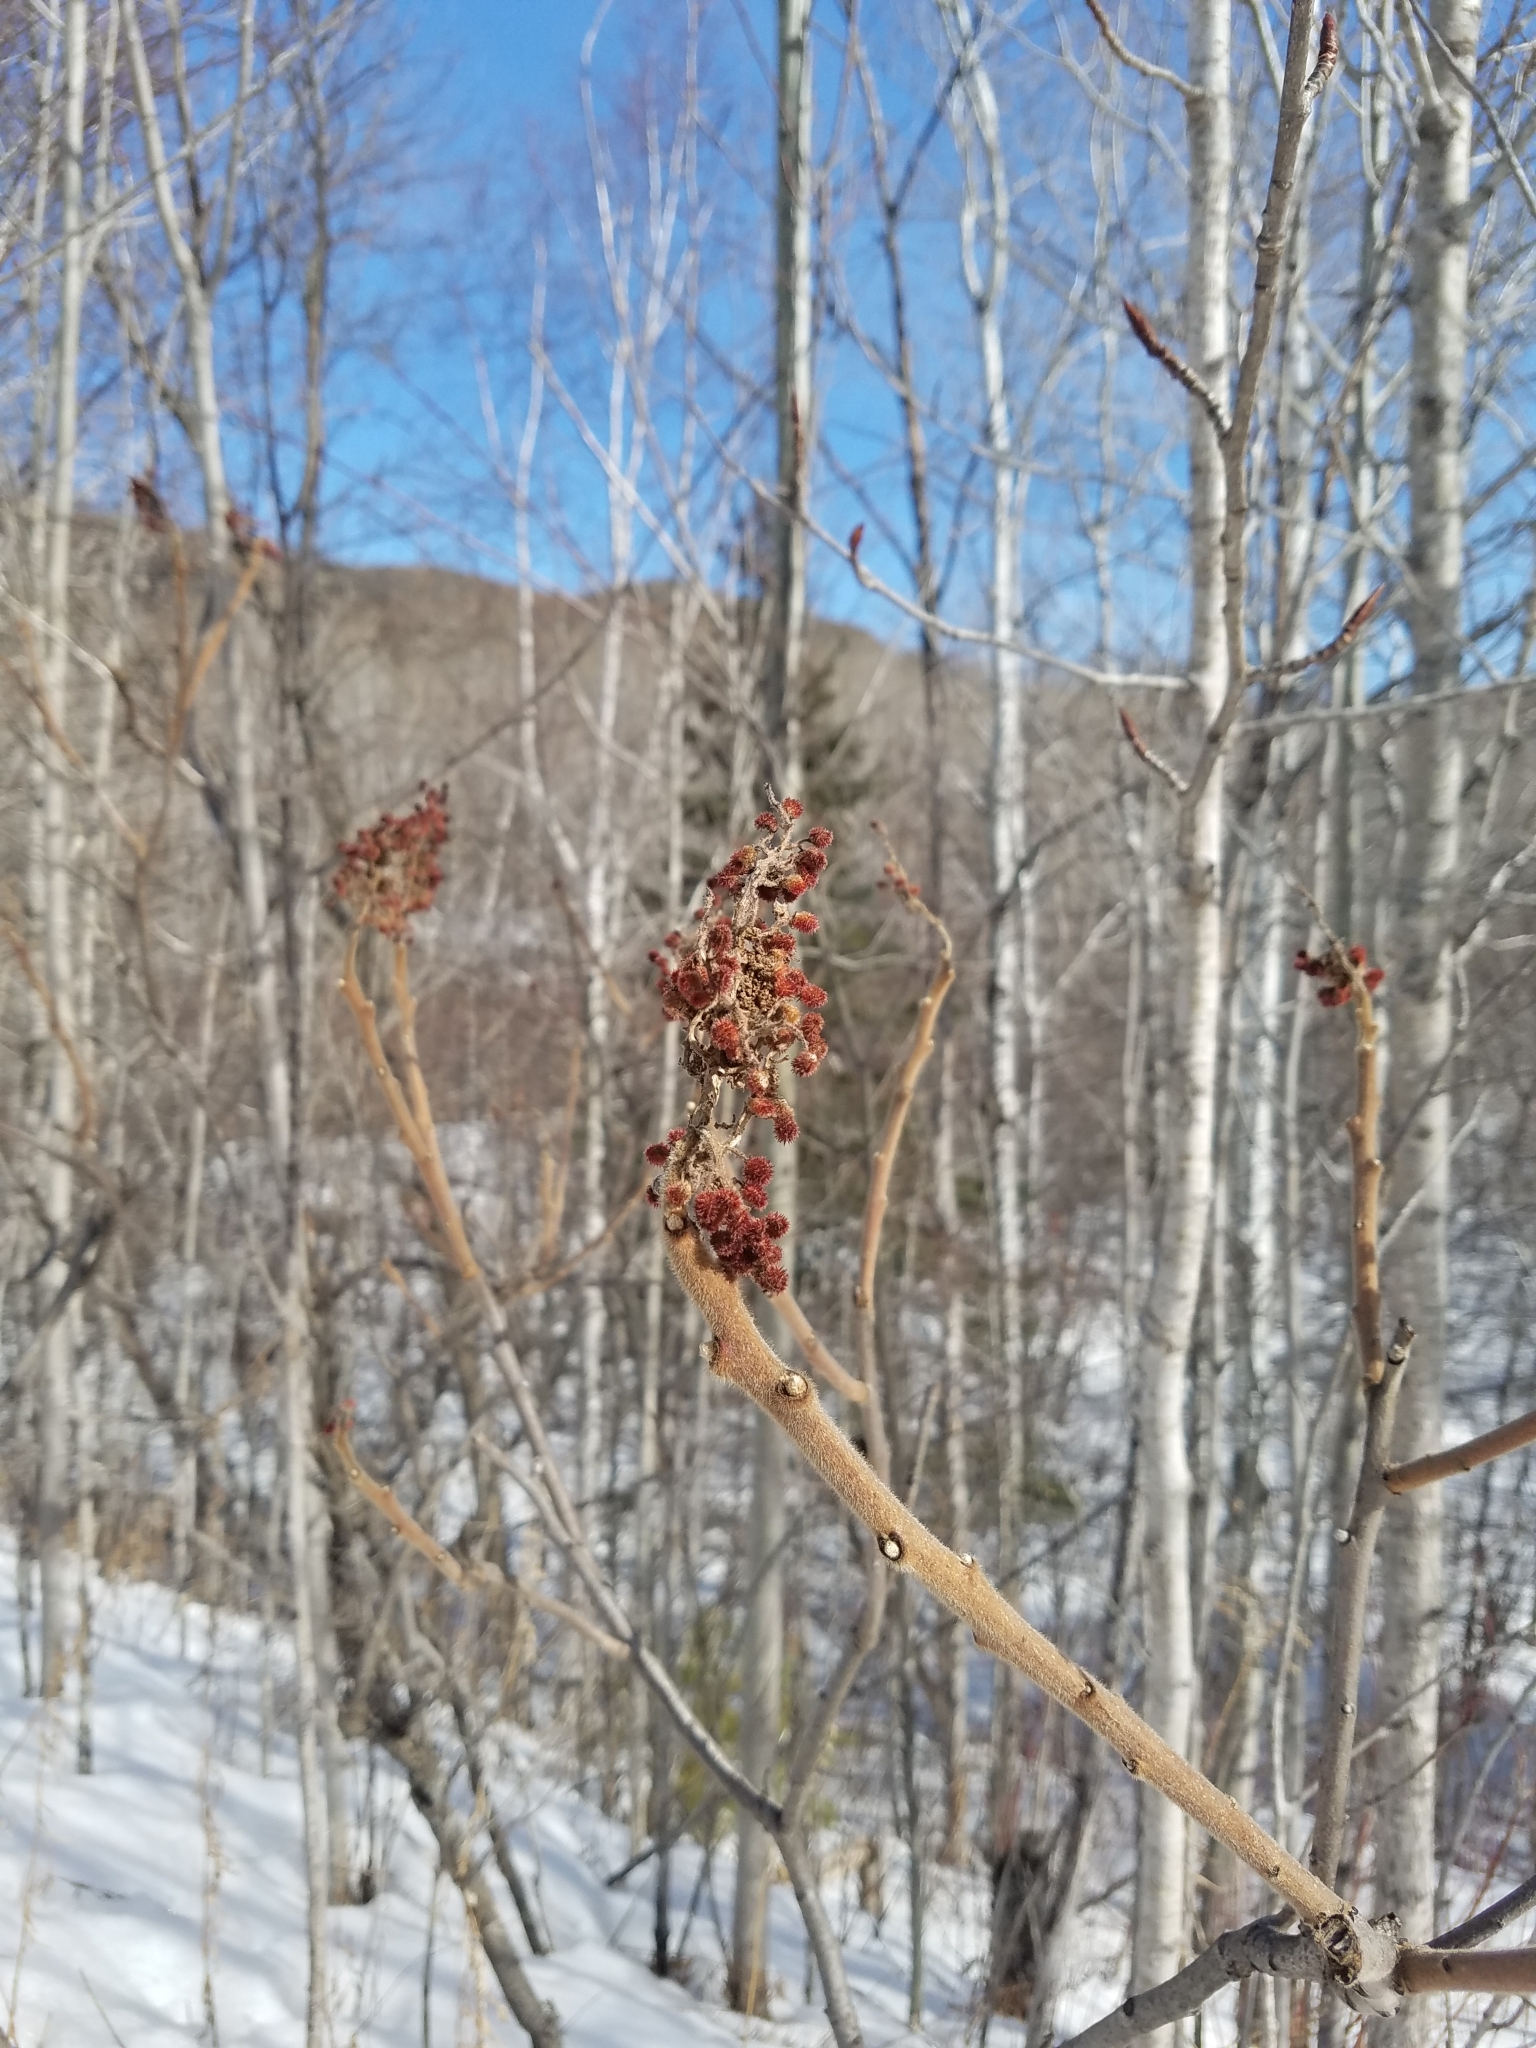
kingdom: Plantae
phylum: Tracheophyta
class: Magnoliopsida
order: Sapindales
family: Anacardiaceae
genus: Rhus
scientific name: Rhus typhina
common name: Staghorn sumac
